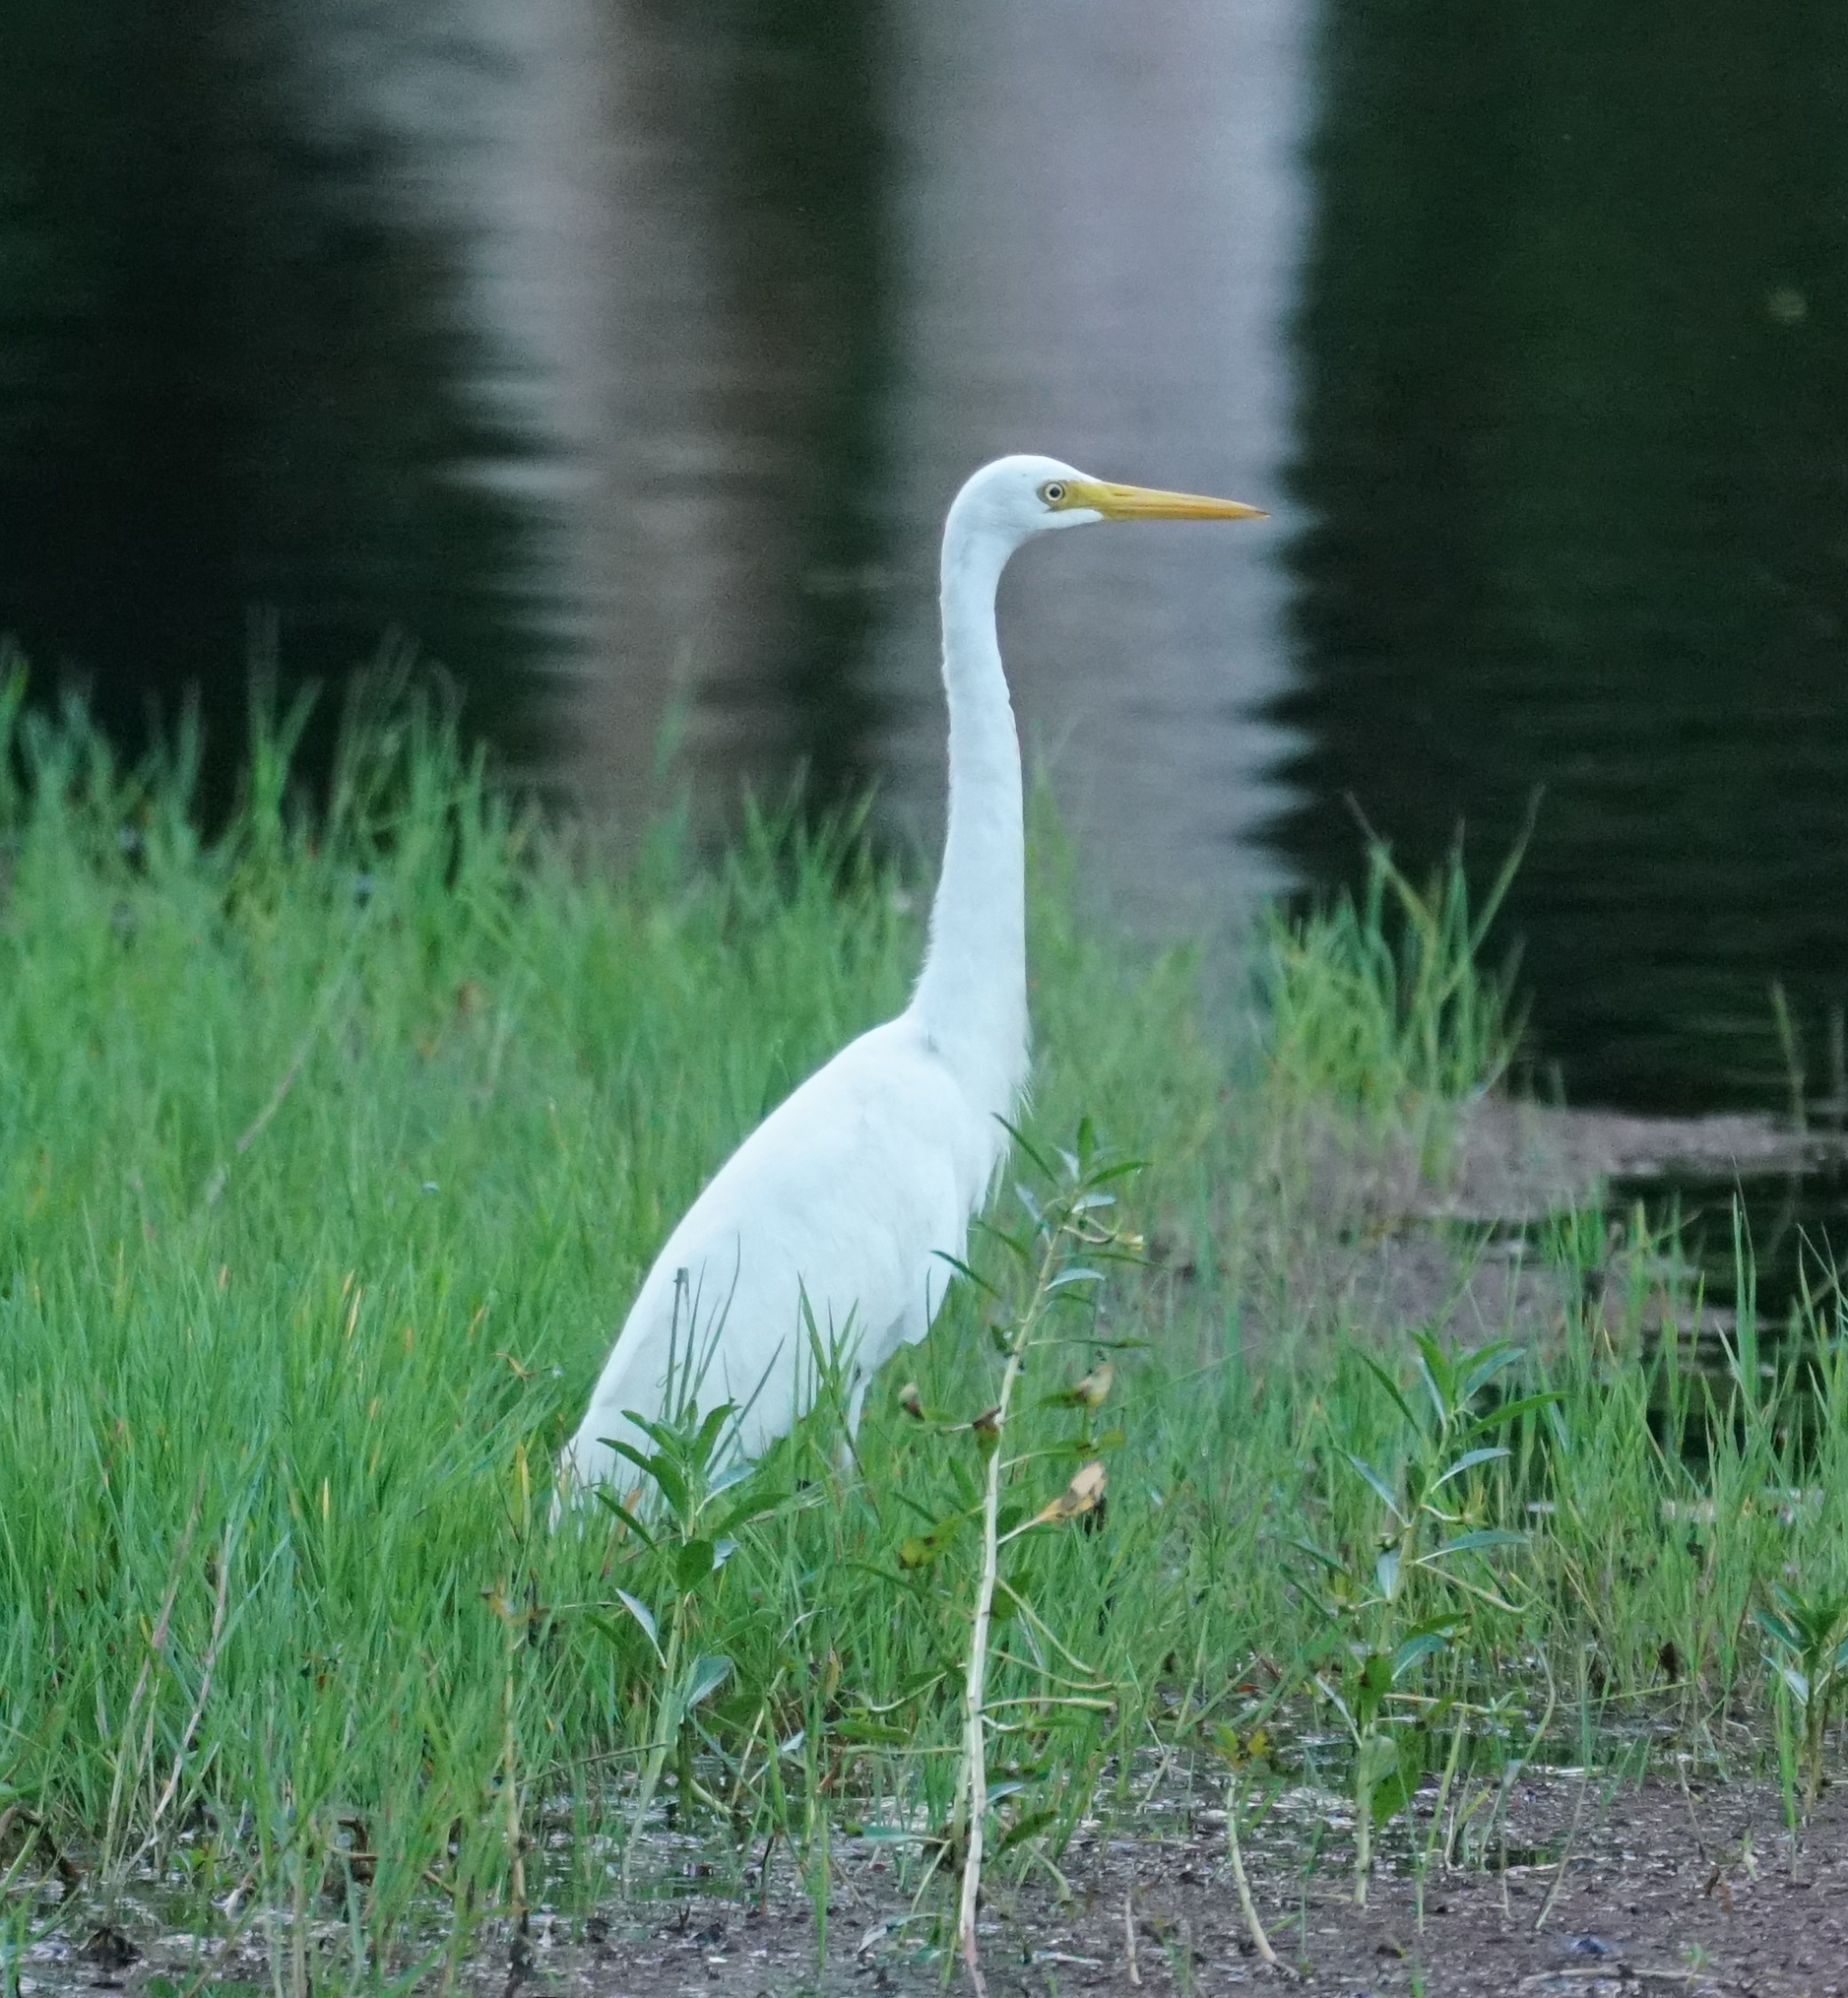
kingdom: Animalia
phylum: Chordata
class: Aves
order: Pelecaniformes
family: Ardeidae
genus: Egretta
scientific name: Egretta intermedia
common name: Intermediate egret
